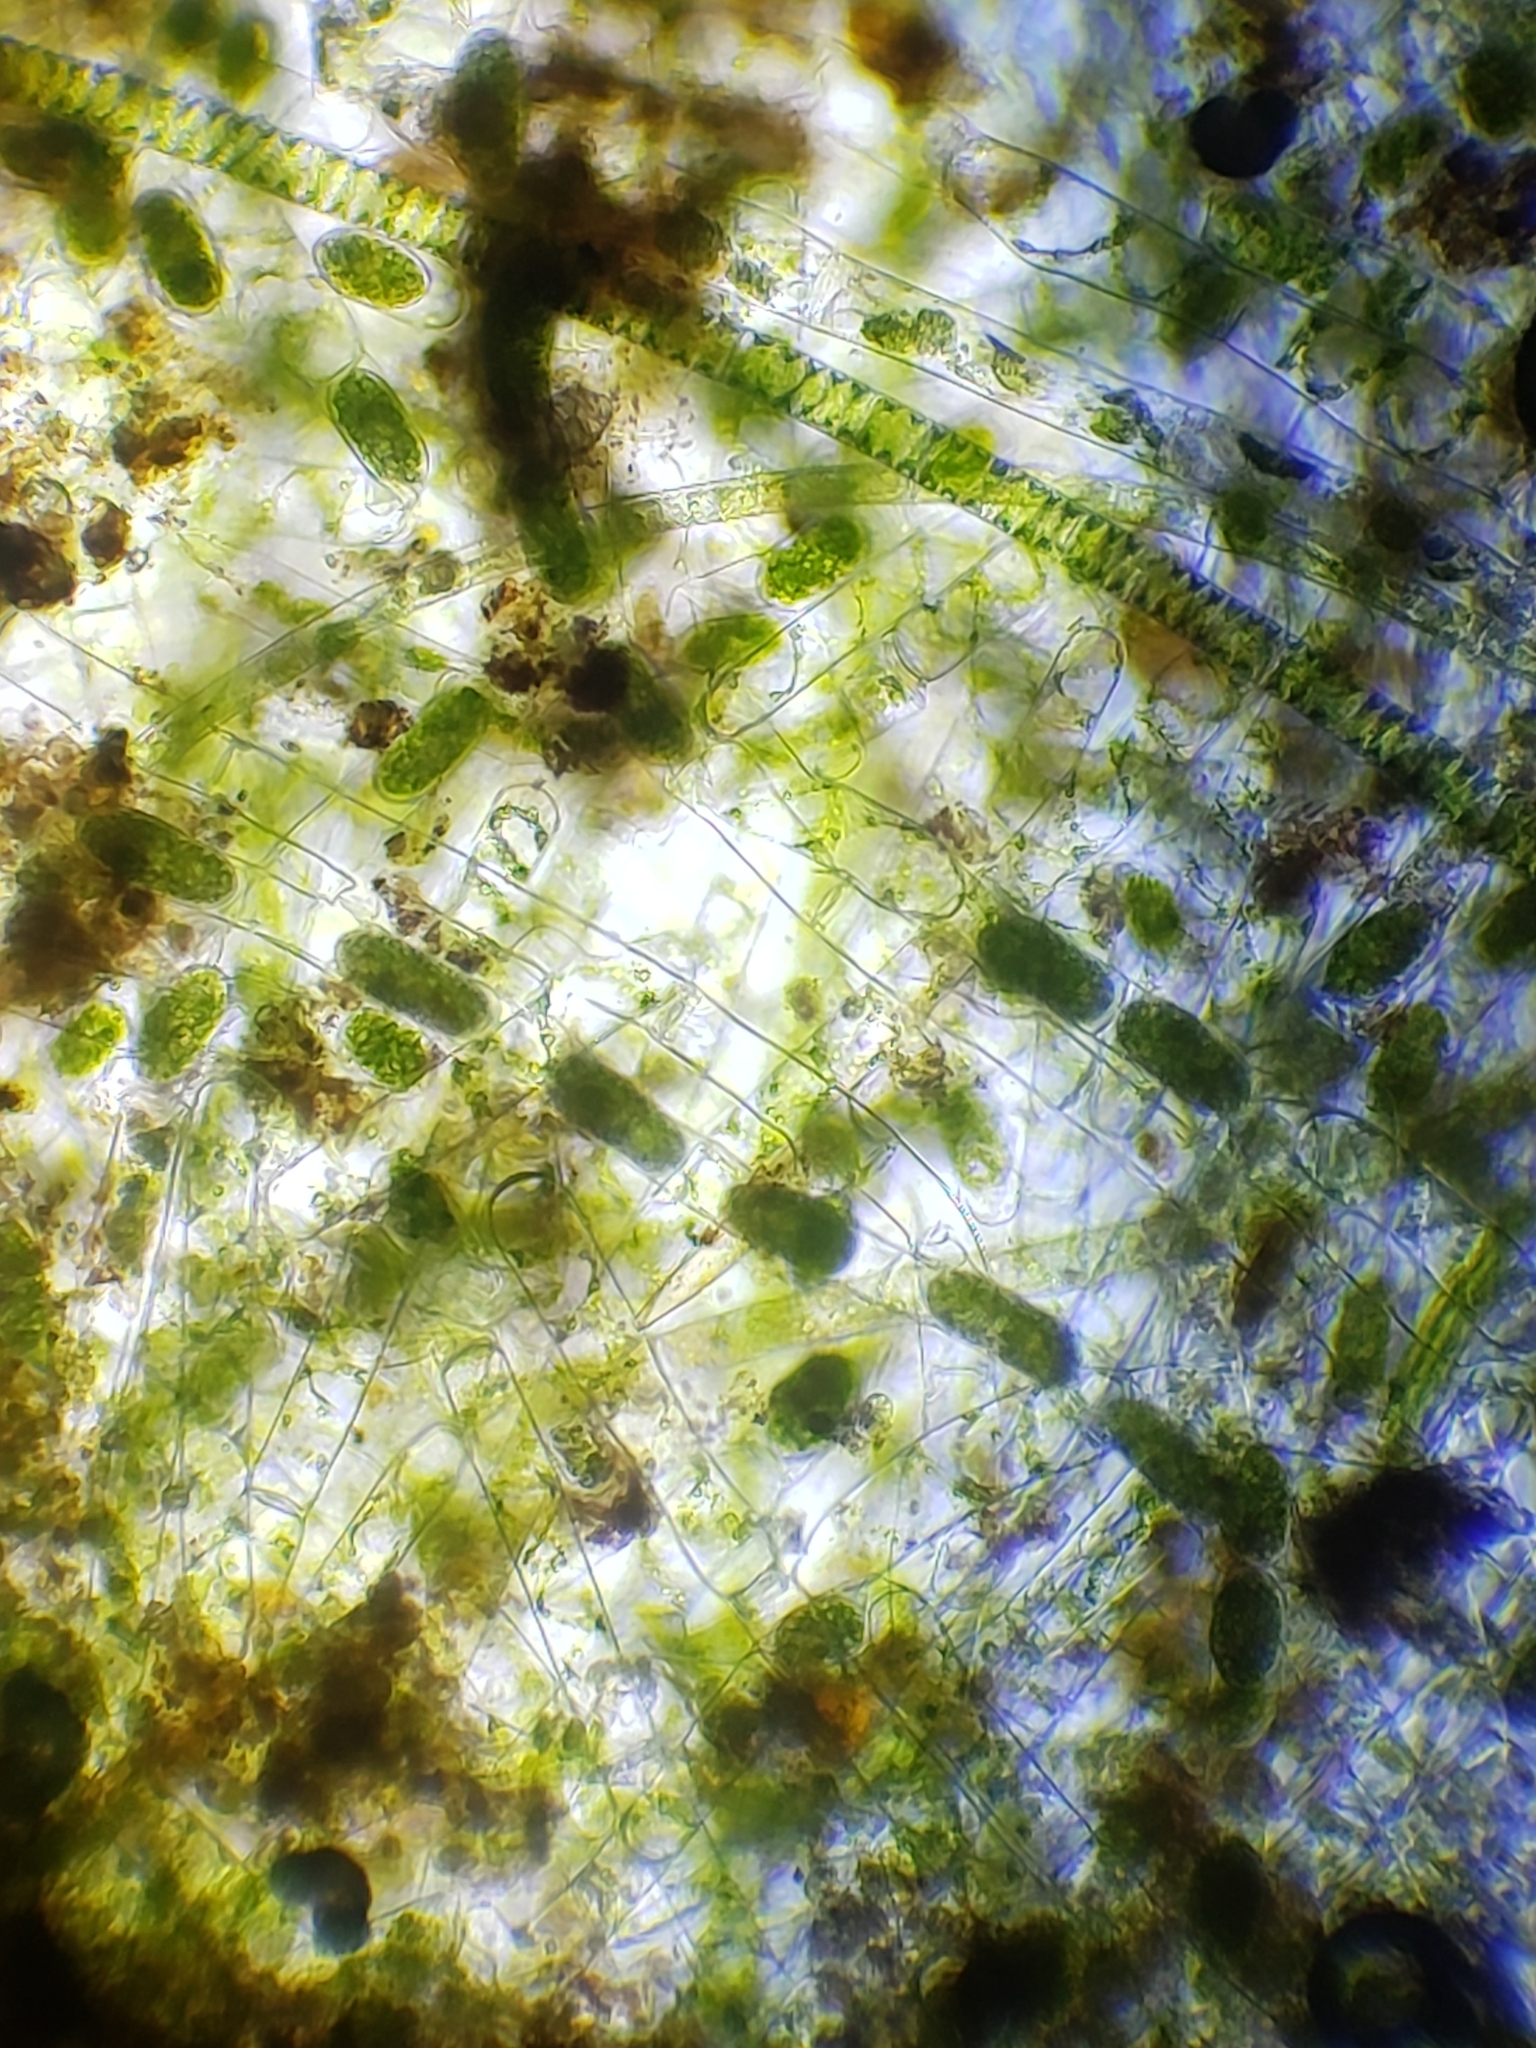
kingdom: Plantae
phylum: Charophyta
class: Zygnematophyceae
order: Zygnematales
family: Zygnemataceae
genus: Spirogyra
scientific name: Spirogyra
